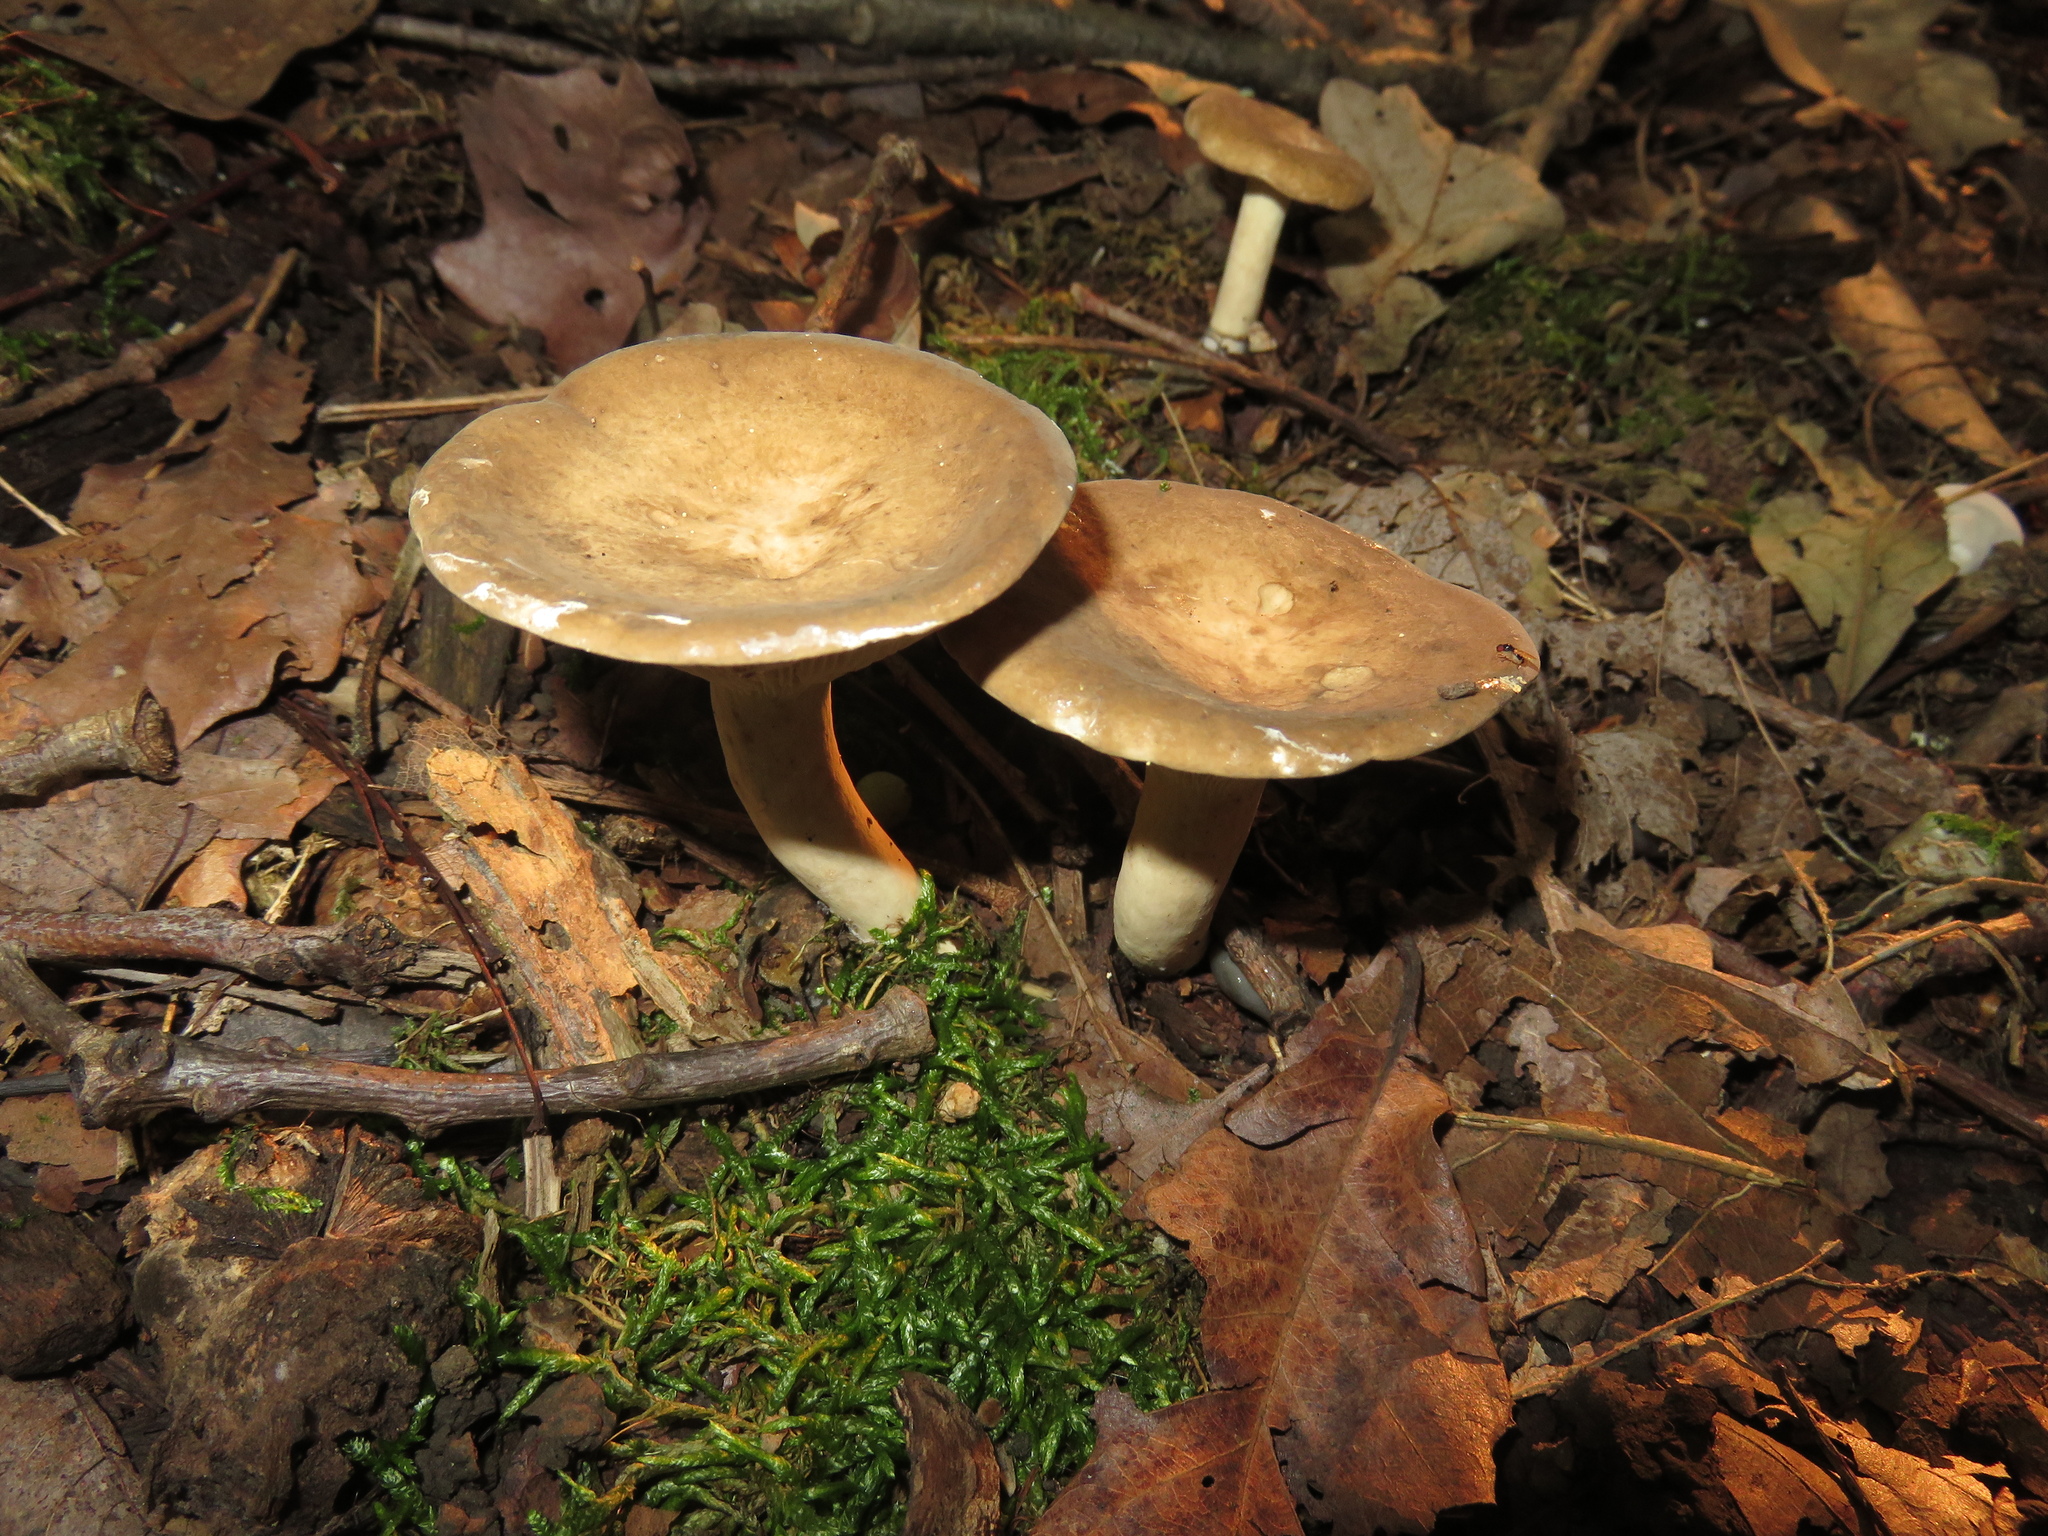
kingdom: Fungi
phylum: Basidiomycota
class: Agaricomycetes
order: Russulales
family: Russulaceae
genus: Lactarius
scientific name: Lactarius subvernalis
